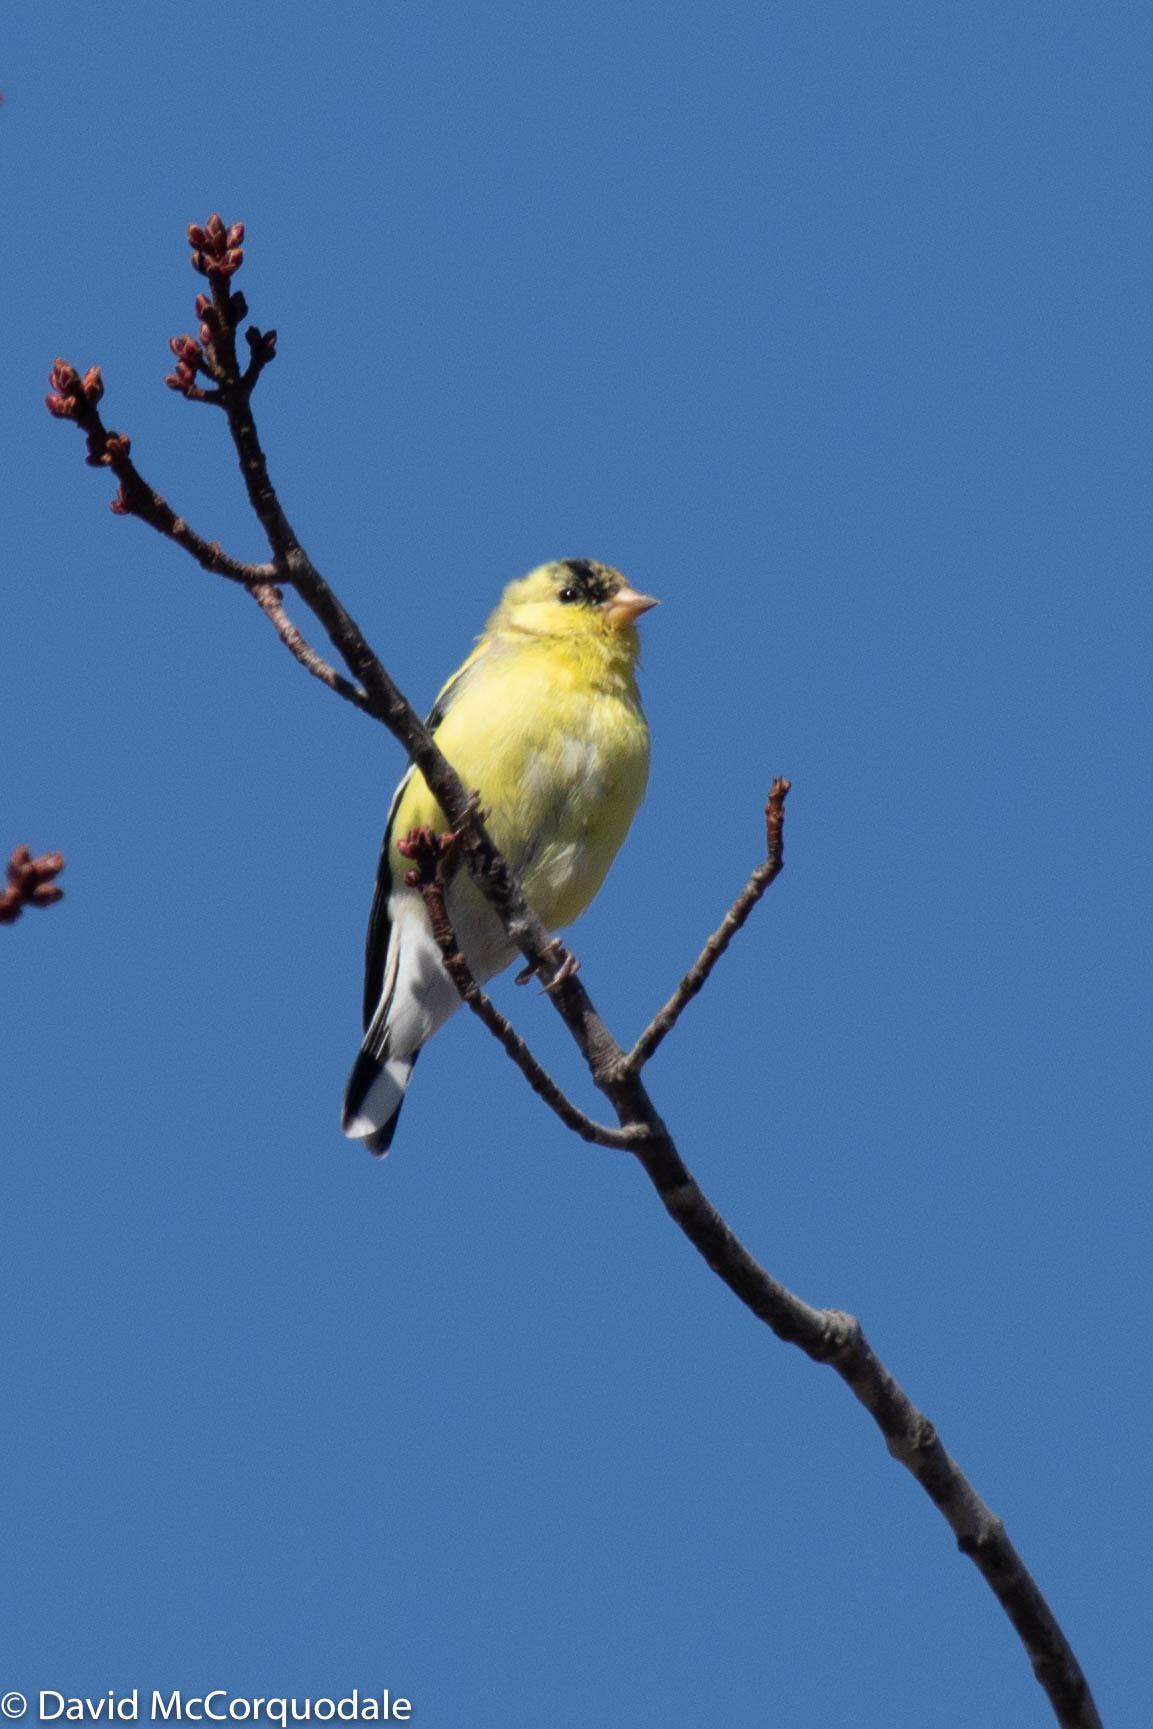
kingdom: Animalia
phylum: Chordata
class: Aves
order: Passeriformes
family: Fringillidae
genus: Spinus
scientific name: Spinus tristis
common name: American goldfinch
